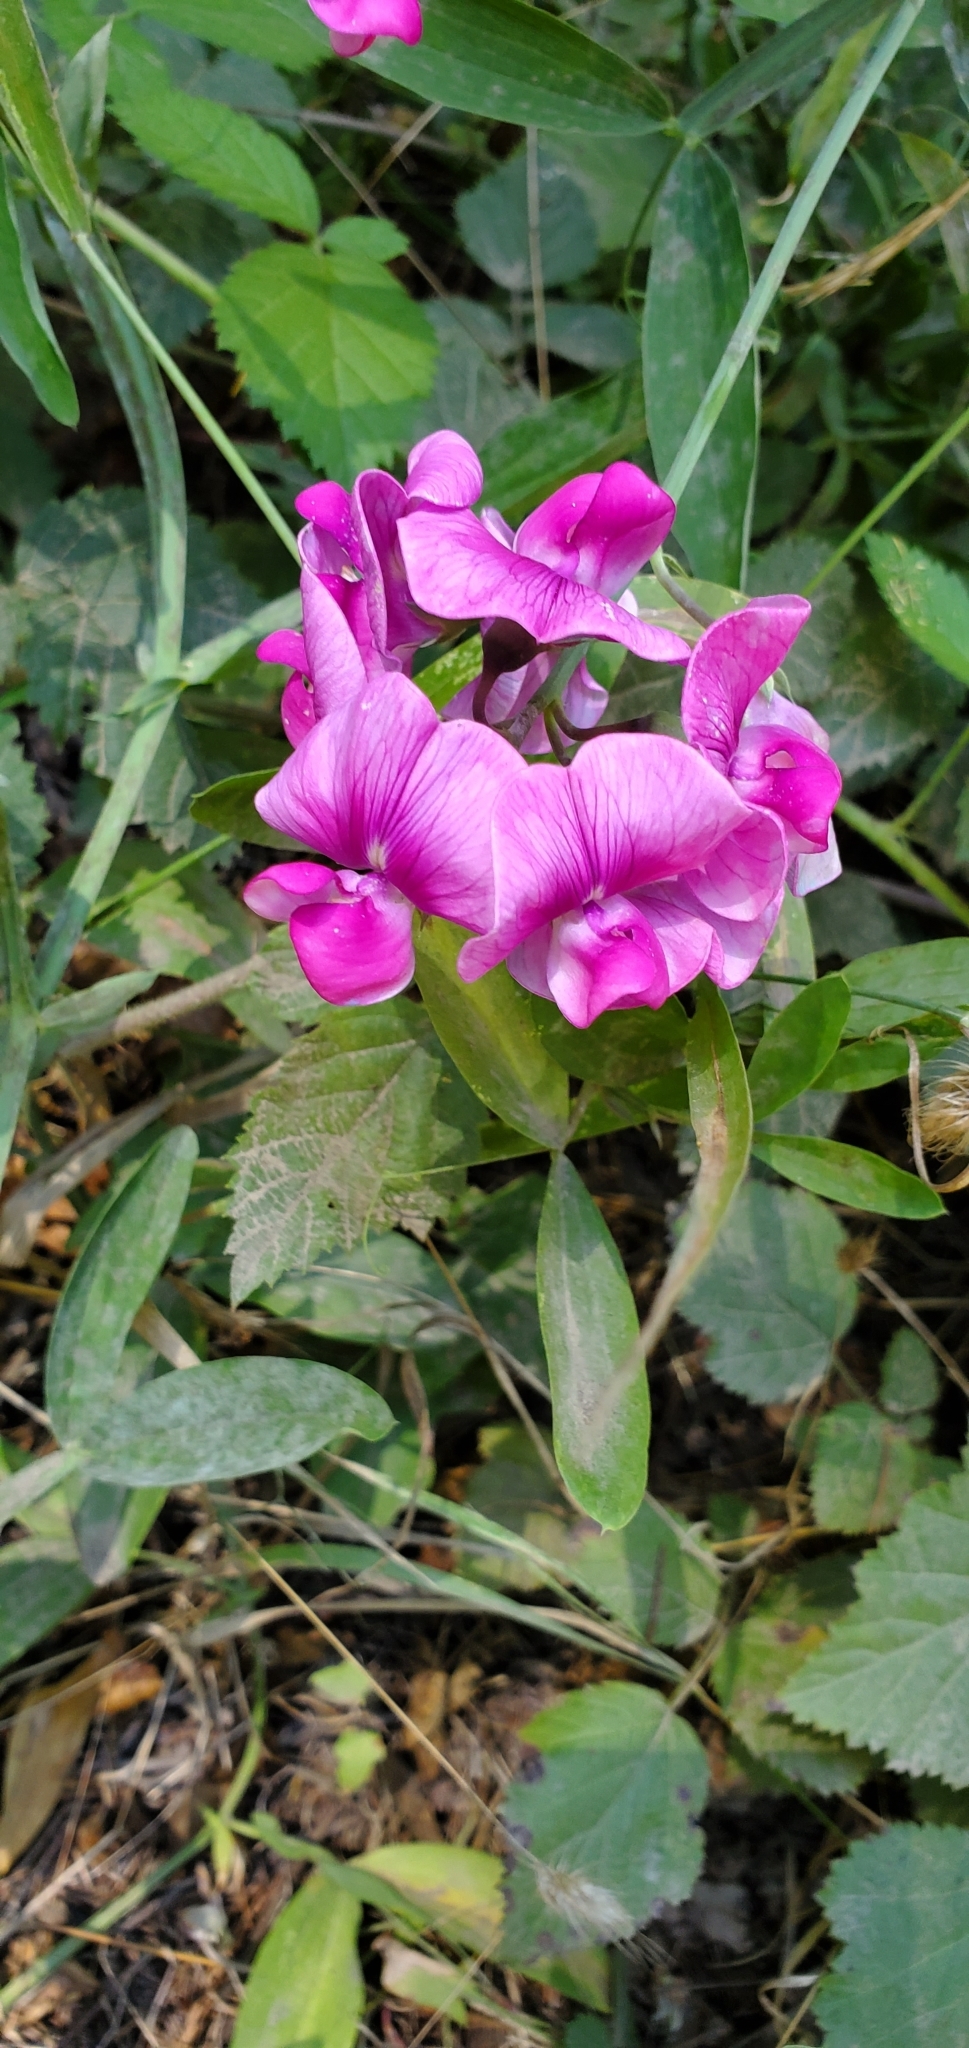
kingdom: Plantae
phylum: Tracheophyta
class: Magnoliopsida
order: Fabales
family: Fabaceae
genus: Lathyrus
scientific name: Lathyrus latifolius
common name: Perennial pea
